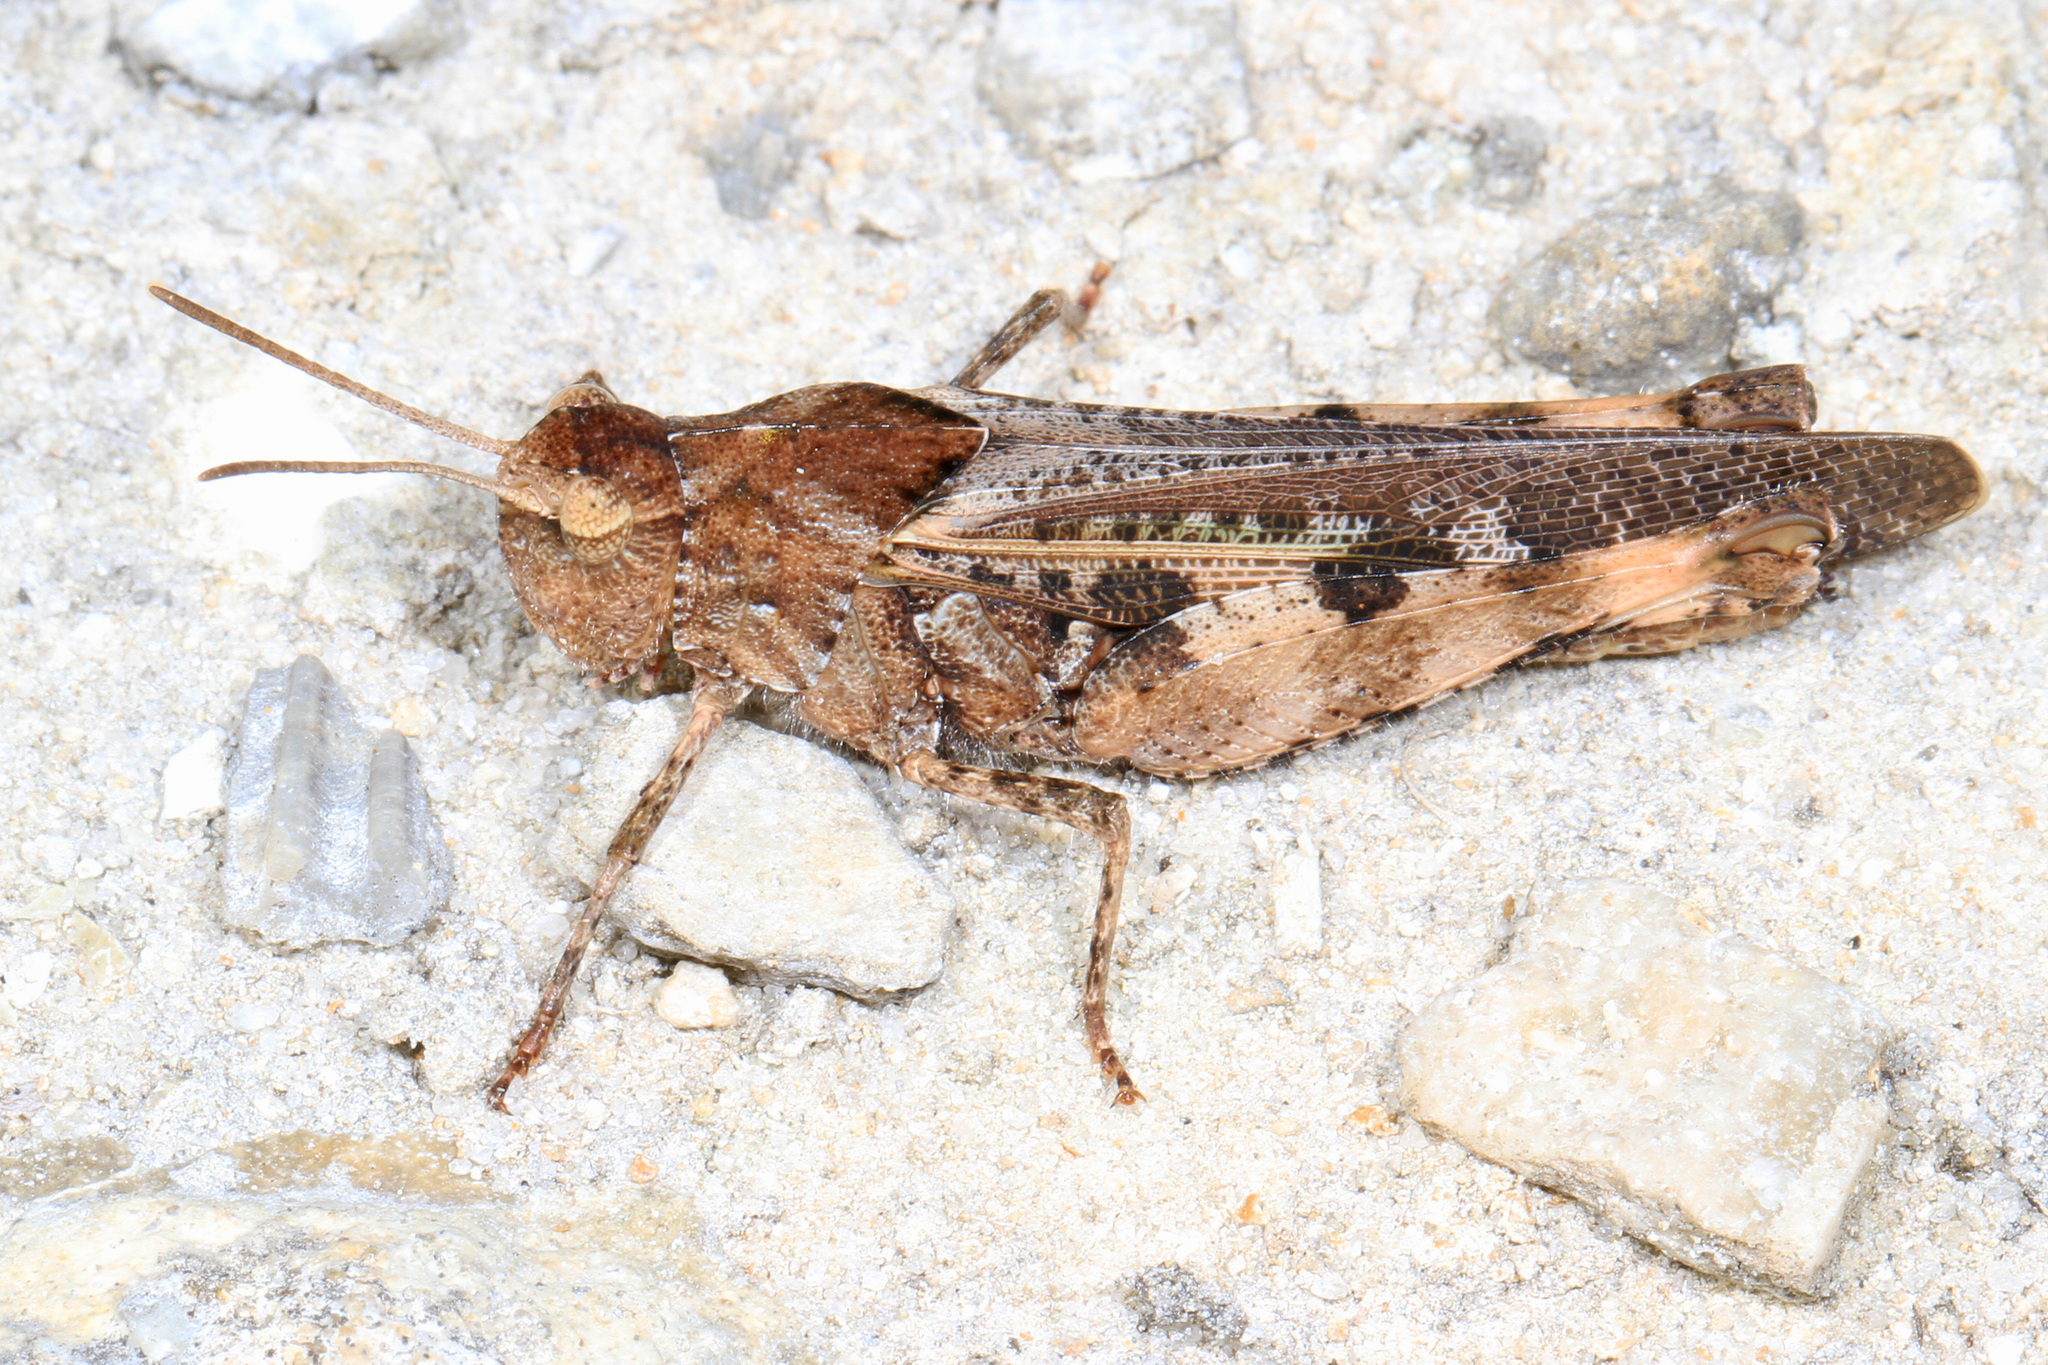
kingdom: Animalia
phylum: Arthropoda
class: Insecta
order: Orthoptera
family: Acrididae
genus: Chortophaga
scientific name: Chortophaga australior
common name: Southern green-striped grasshopper
